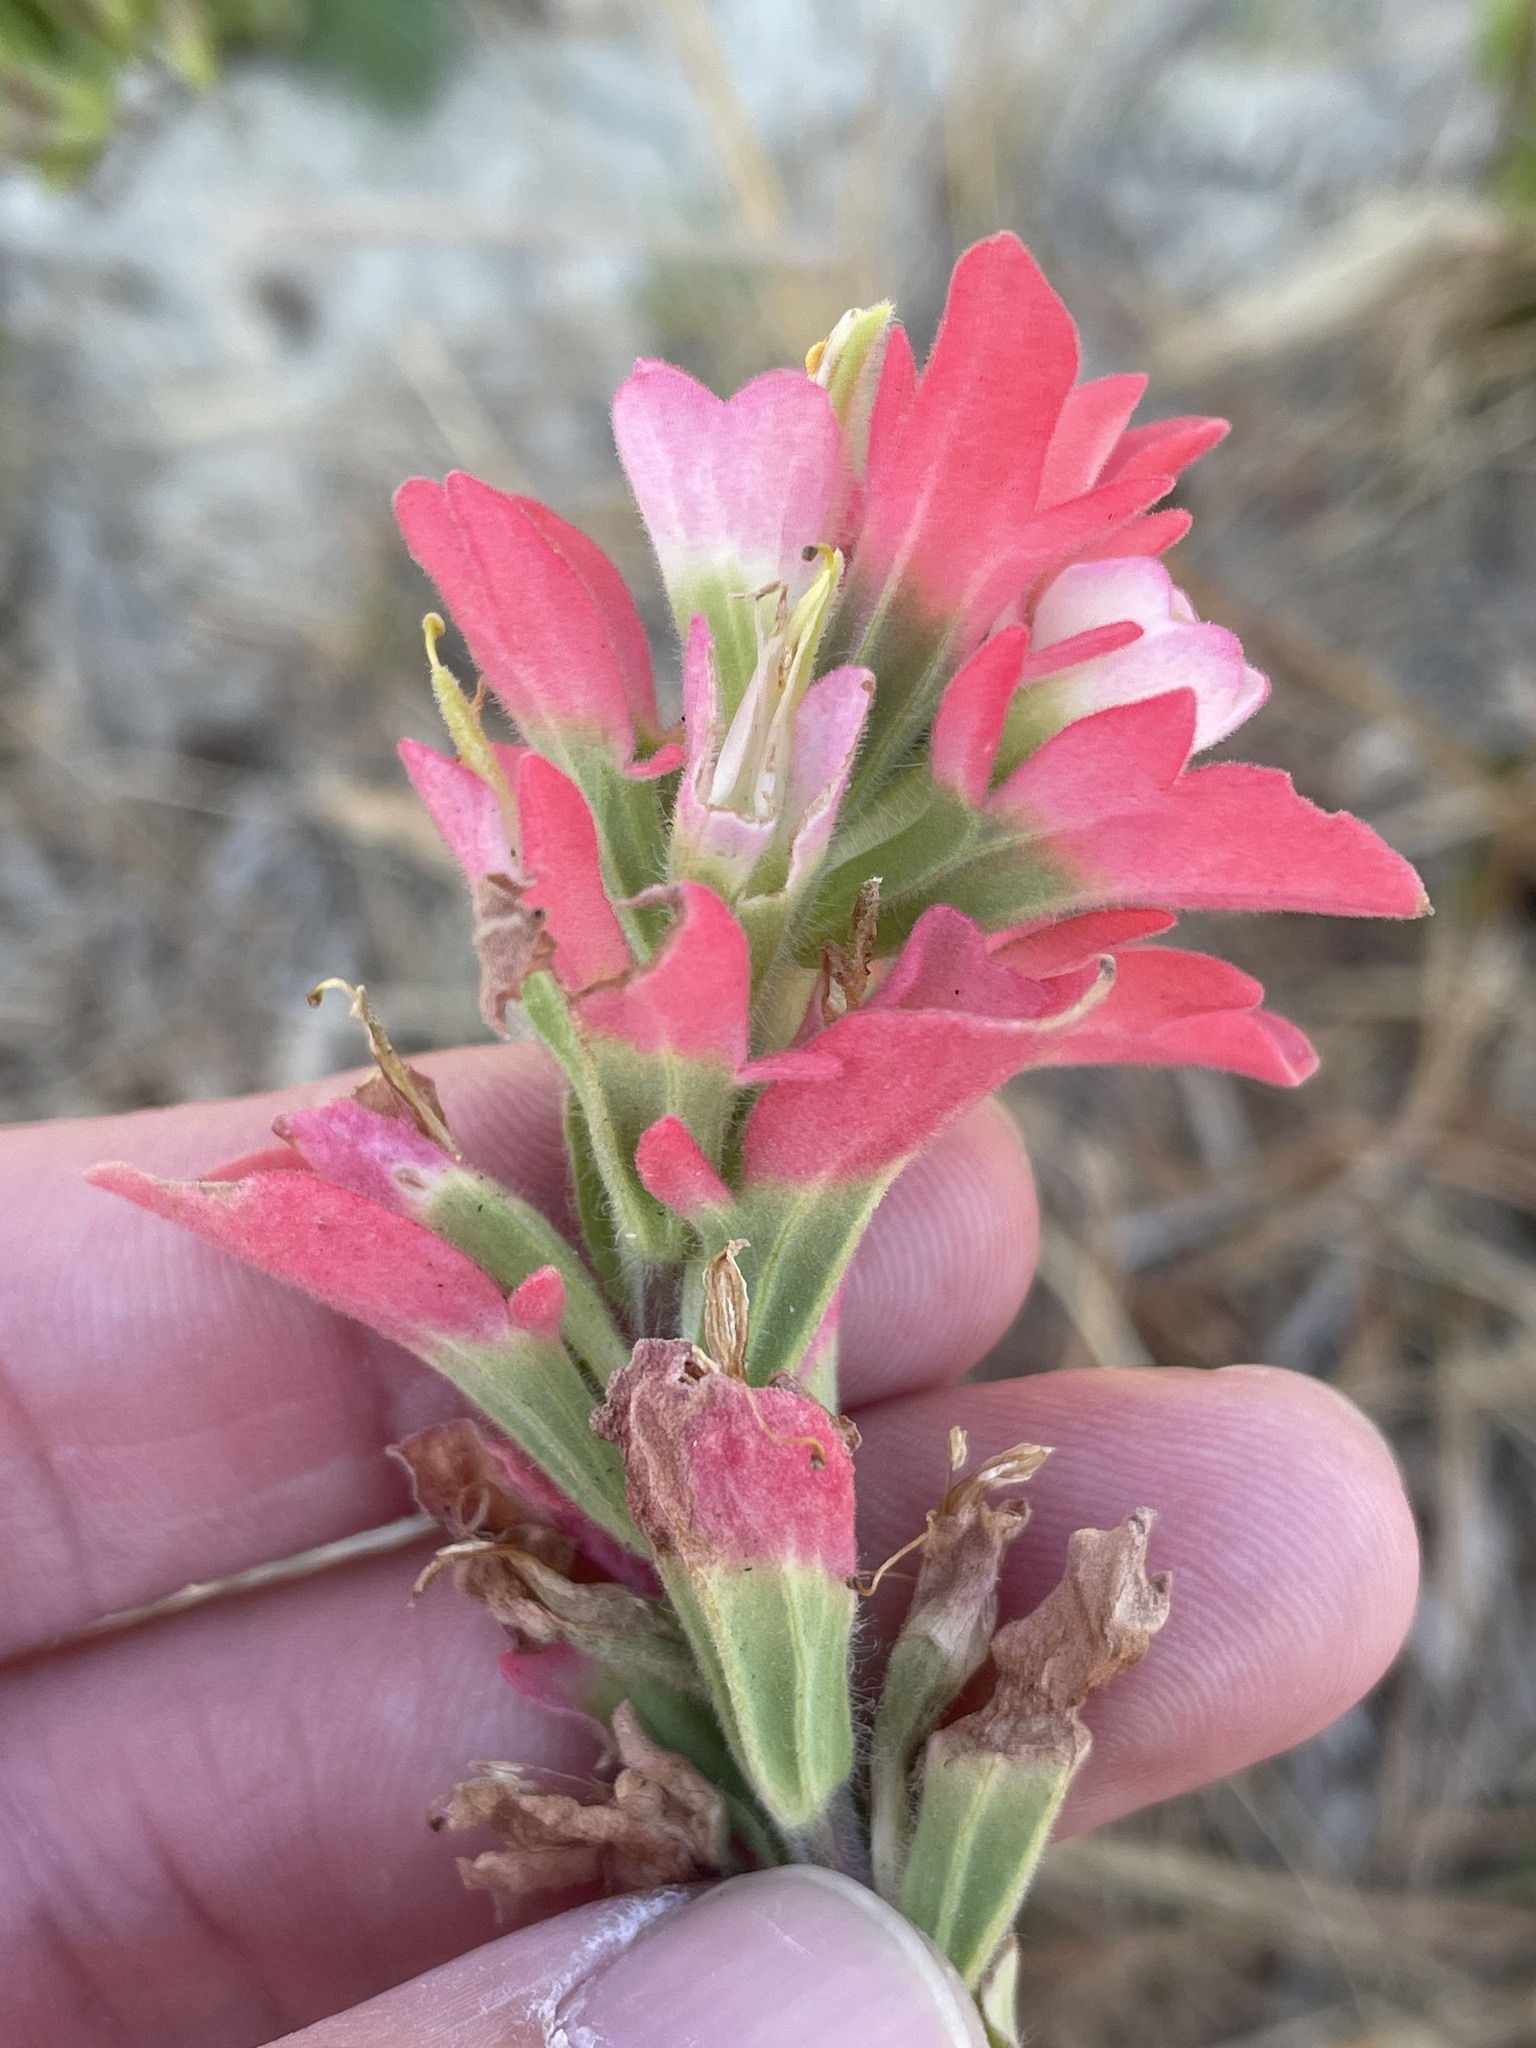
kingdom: Plantae
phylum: Tracheophyta
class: Magnoliopsida
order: Lamiales
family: Orobanchaceae
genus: Castilleja
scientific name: Castilleja indivisa
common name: Texas paintbrush
